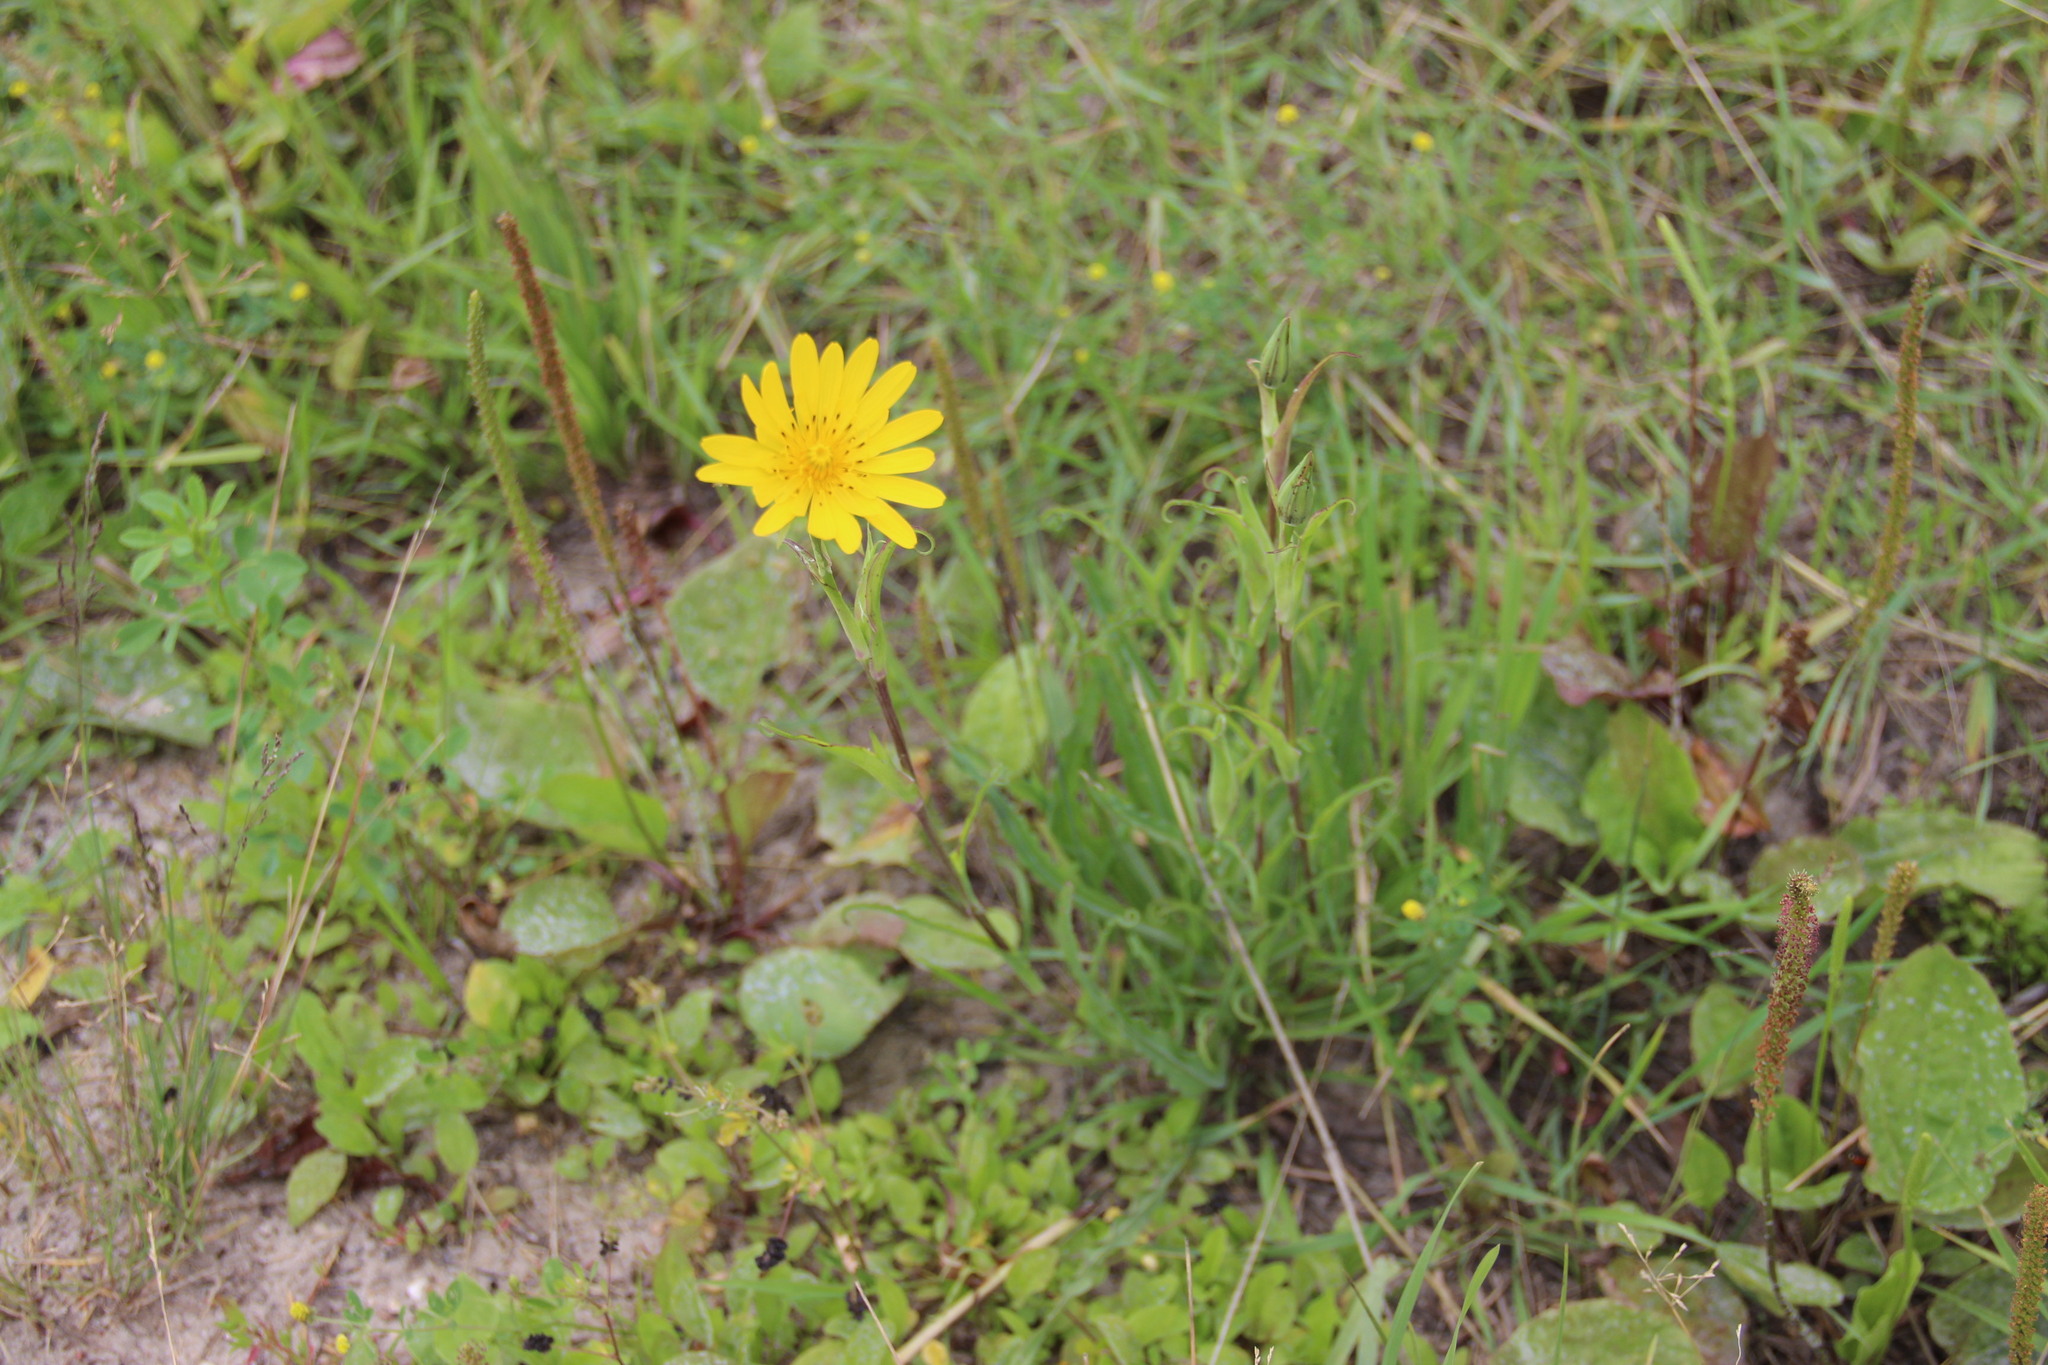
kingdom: Plantae
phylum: Tracheophyta
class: Magnoliopsida
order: Asterales
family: Asteraceae
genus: Tragopogon
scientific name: Tragopogon orientalis
